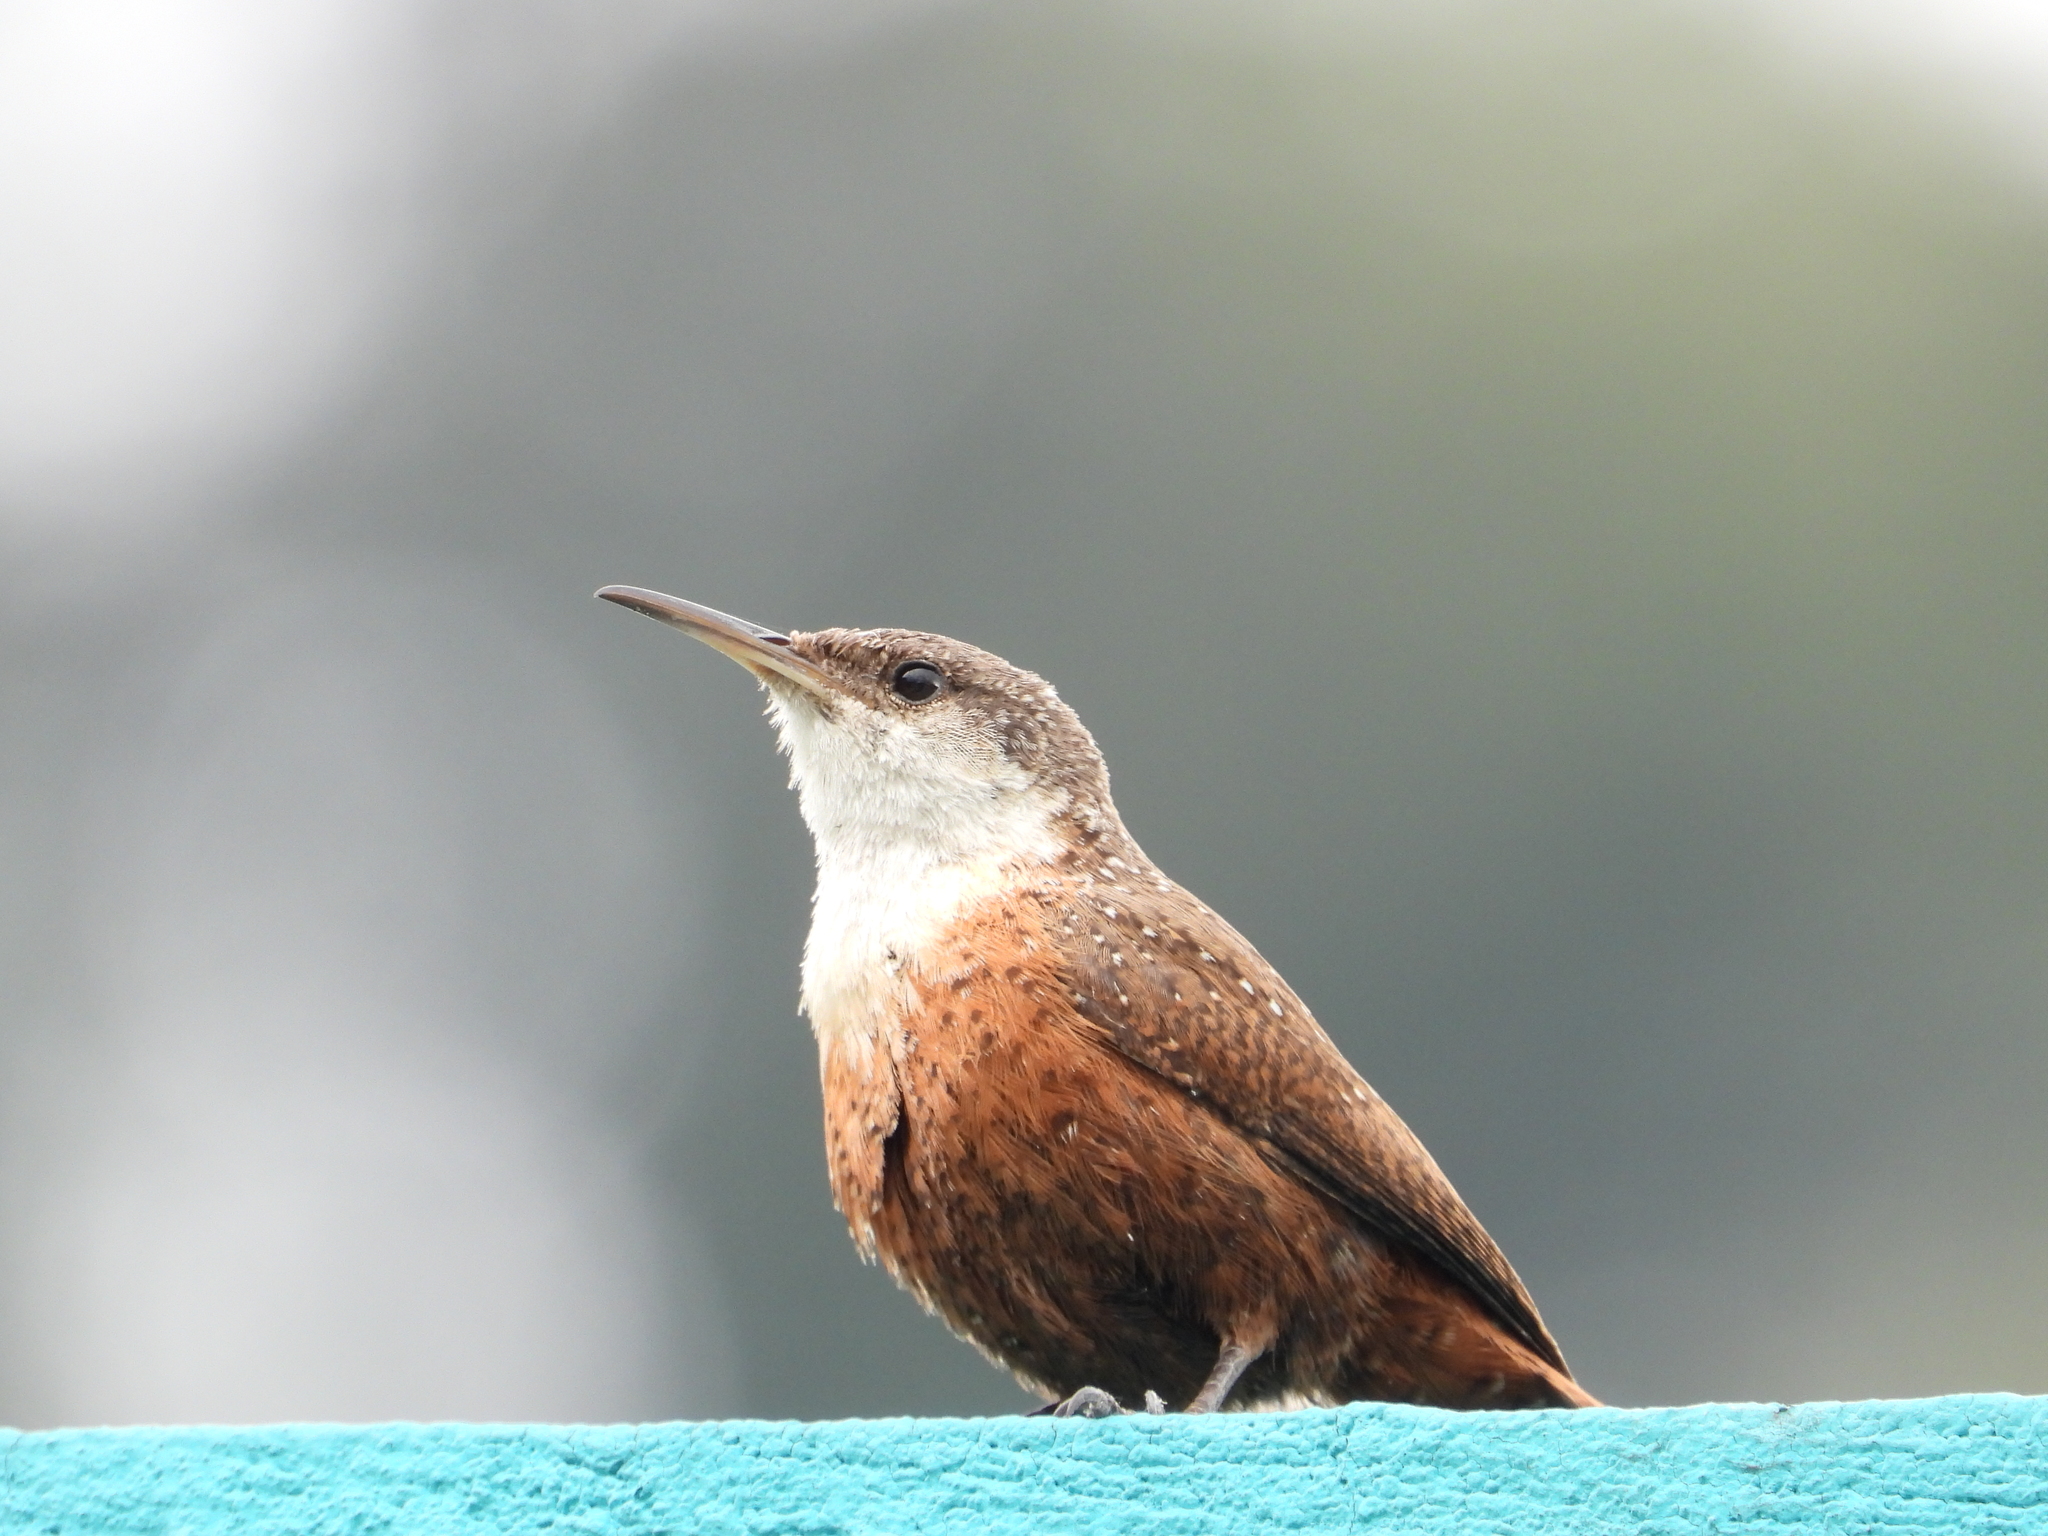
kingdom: Animalia
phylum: Chordata
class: Aves
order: Passeriformes
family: Troglodytidae
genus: Catherpes
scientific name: Catherpes mexicanus
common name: Canyon wren
